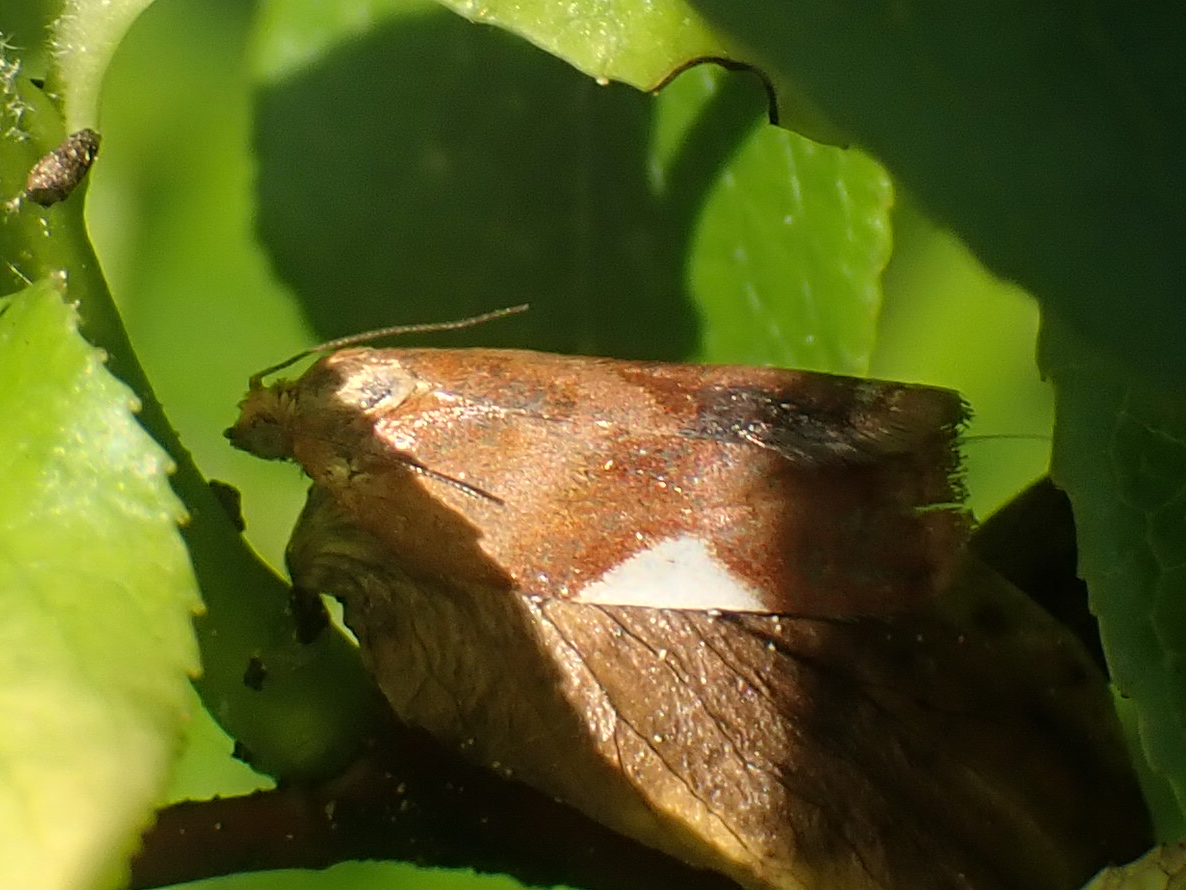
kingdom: Animalia
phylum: Arthropoda
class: Insecta
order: Lepidoptera
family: Tortricidae
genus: Clepsis
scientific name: Clepsis persicana
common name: White triangle tortrix
